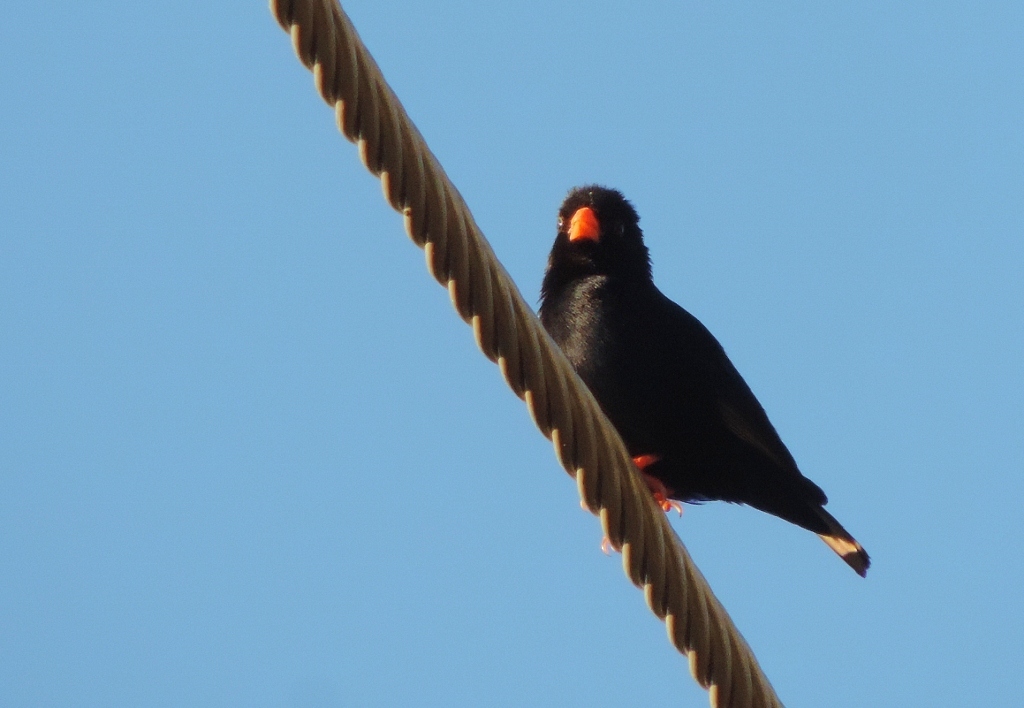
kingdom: Animalia
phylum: Chordata
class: Aves
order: Passeriformes
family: Viduidae
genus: Vidua
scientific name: Vidua chalybeata
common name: Village indigobird
